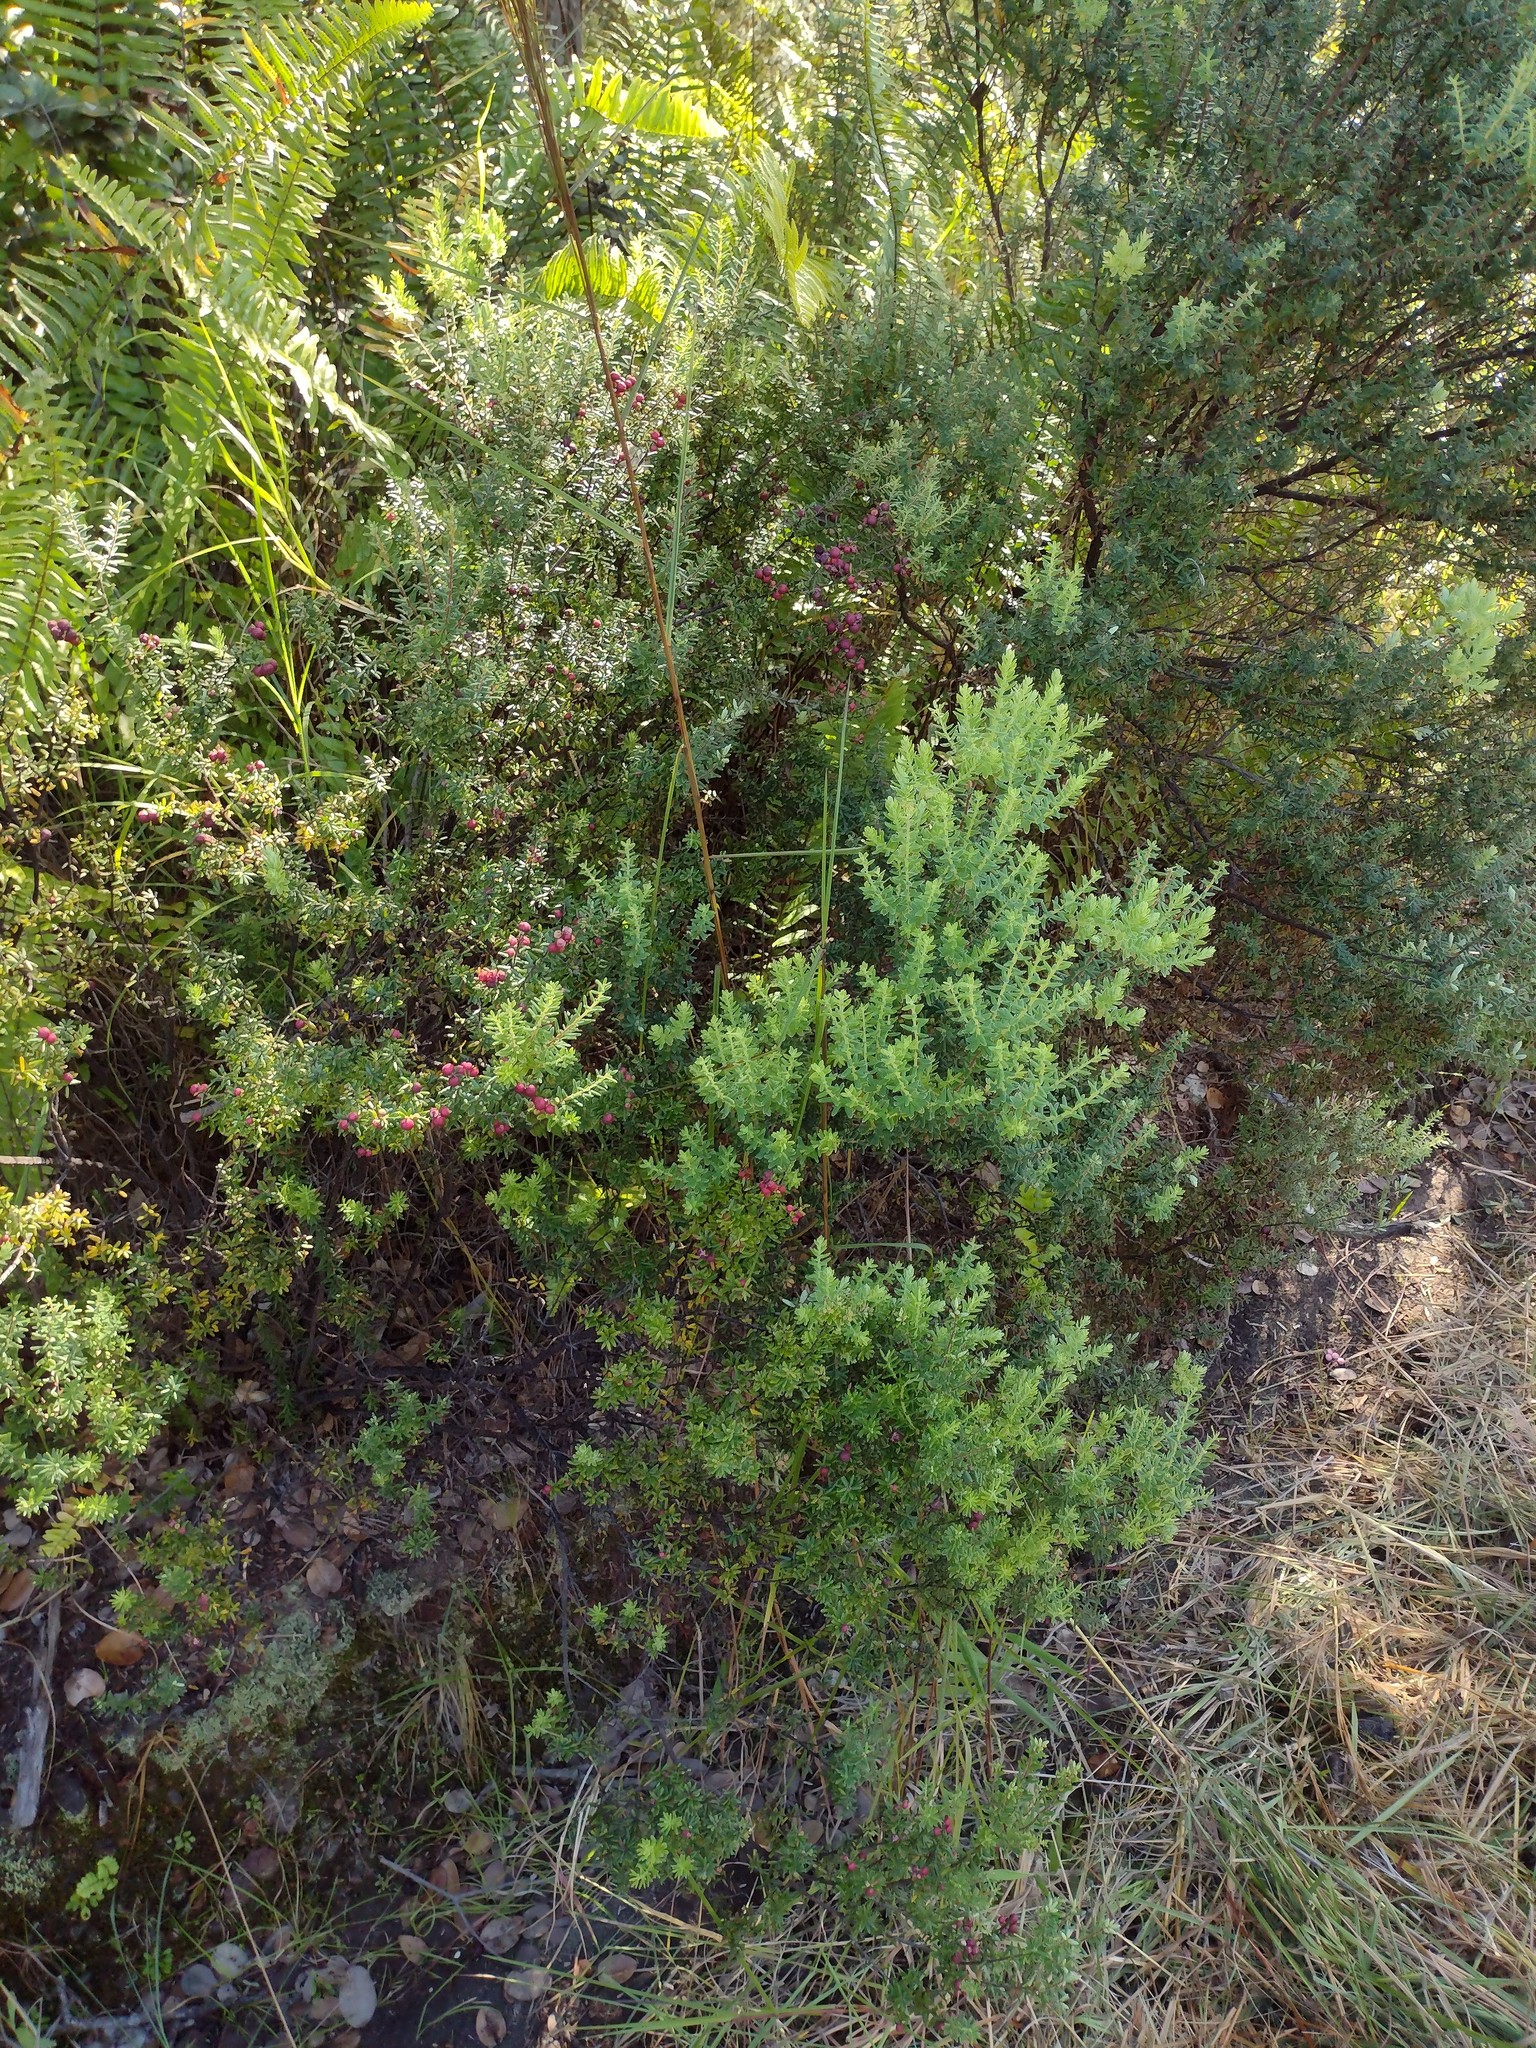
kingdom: Plantae
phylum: Tracheophyta
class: Magnoliopsida
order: Ericales
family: Ericaceae
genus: Leptecophylla
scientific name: Leptecophylla tameiameiae
